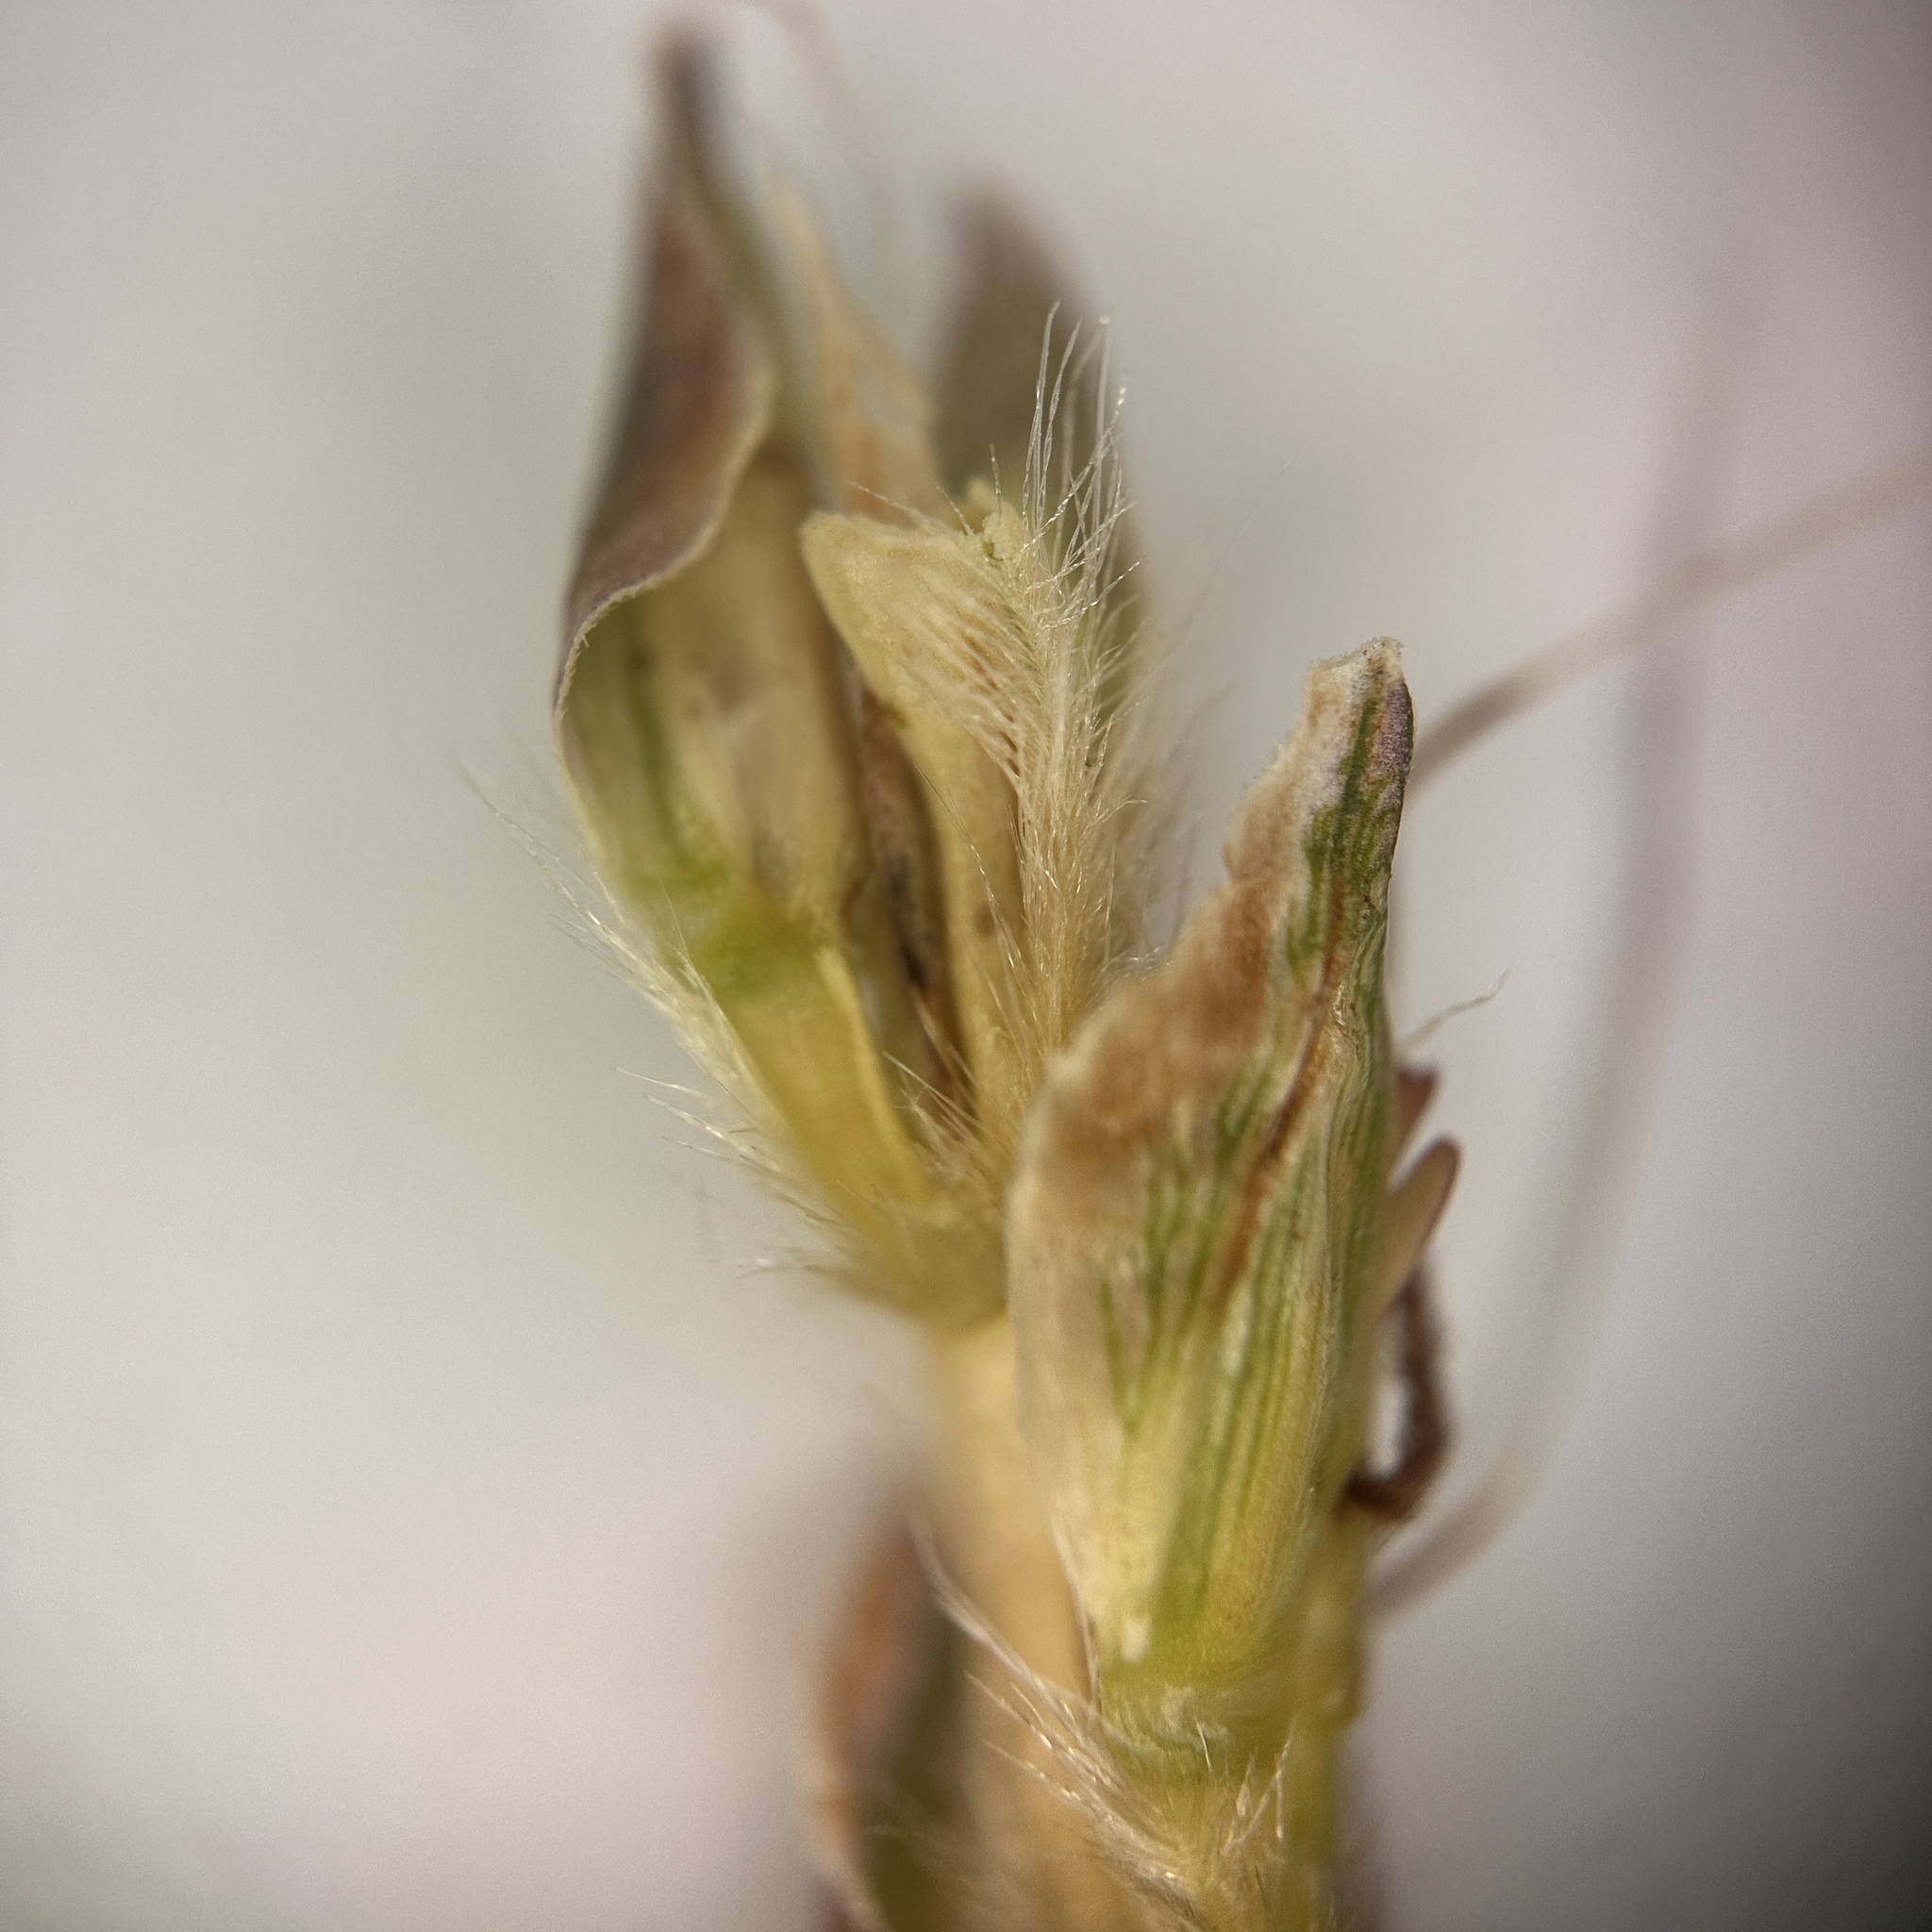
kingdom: Plantae
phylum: Tracheophyta
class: Liliopsida
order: Poales
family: Poaceae
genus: Ischaemum
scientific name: Ischaemum barbatum
